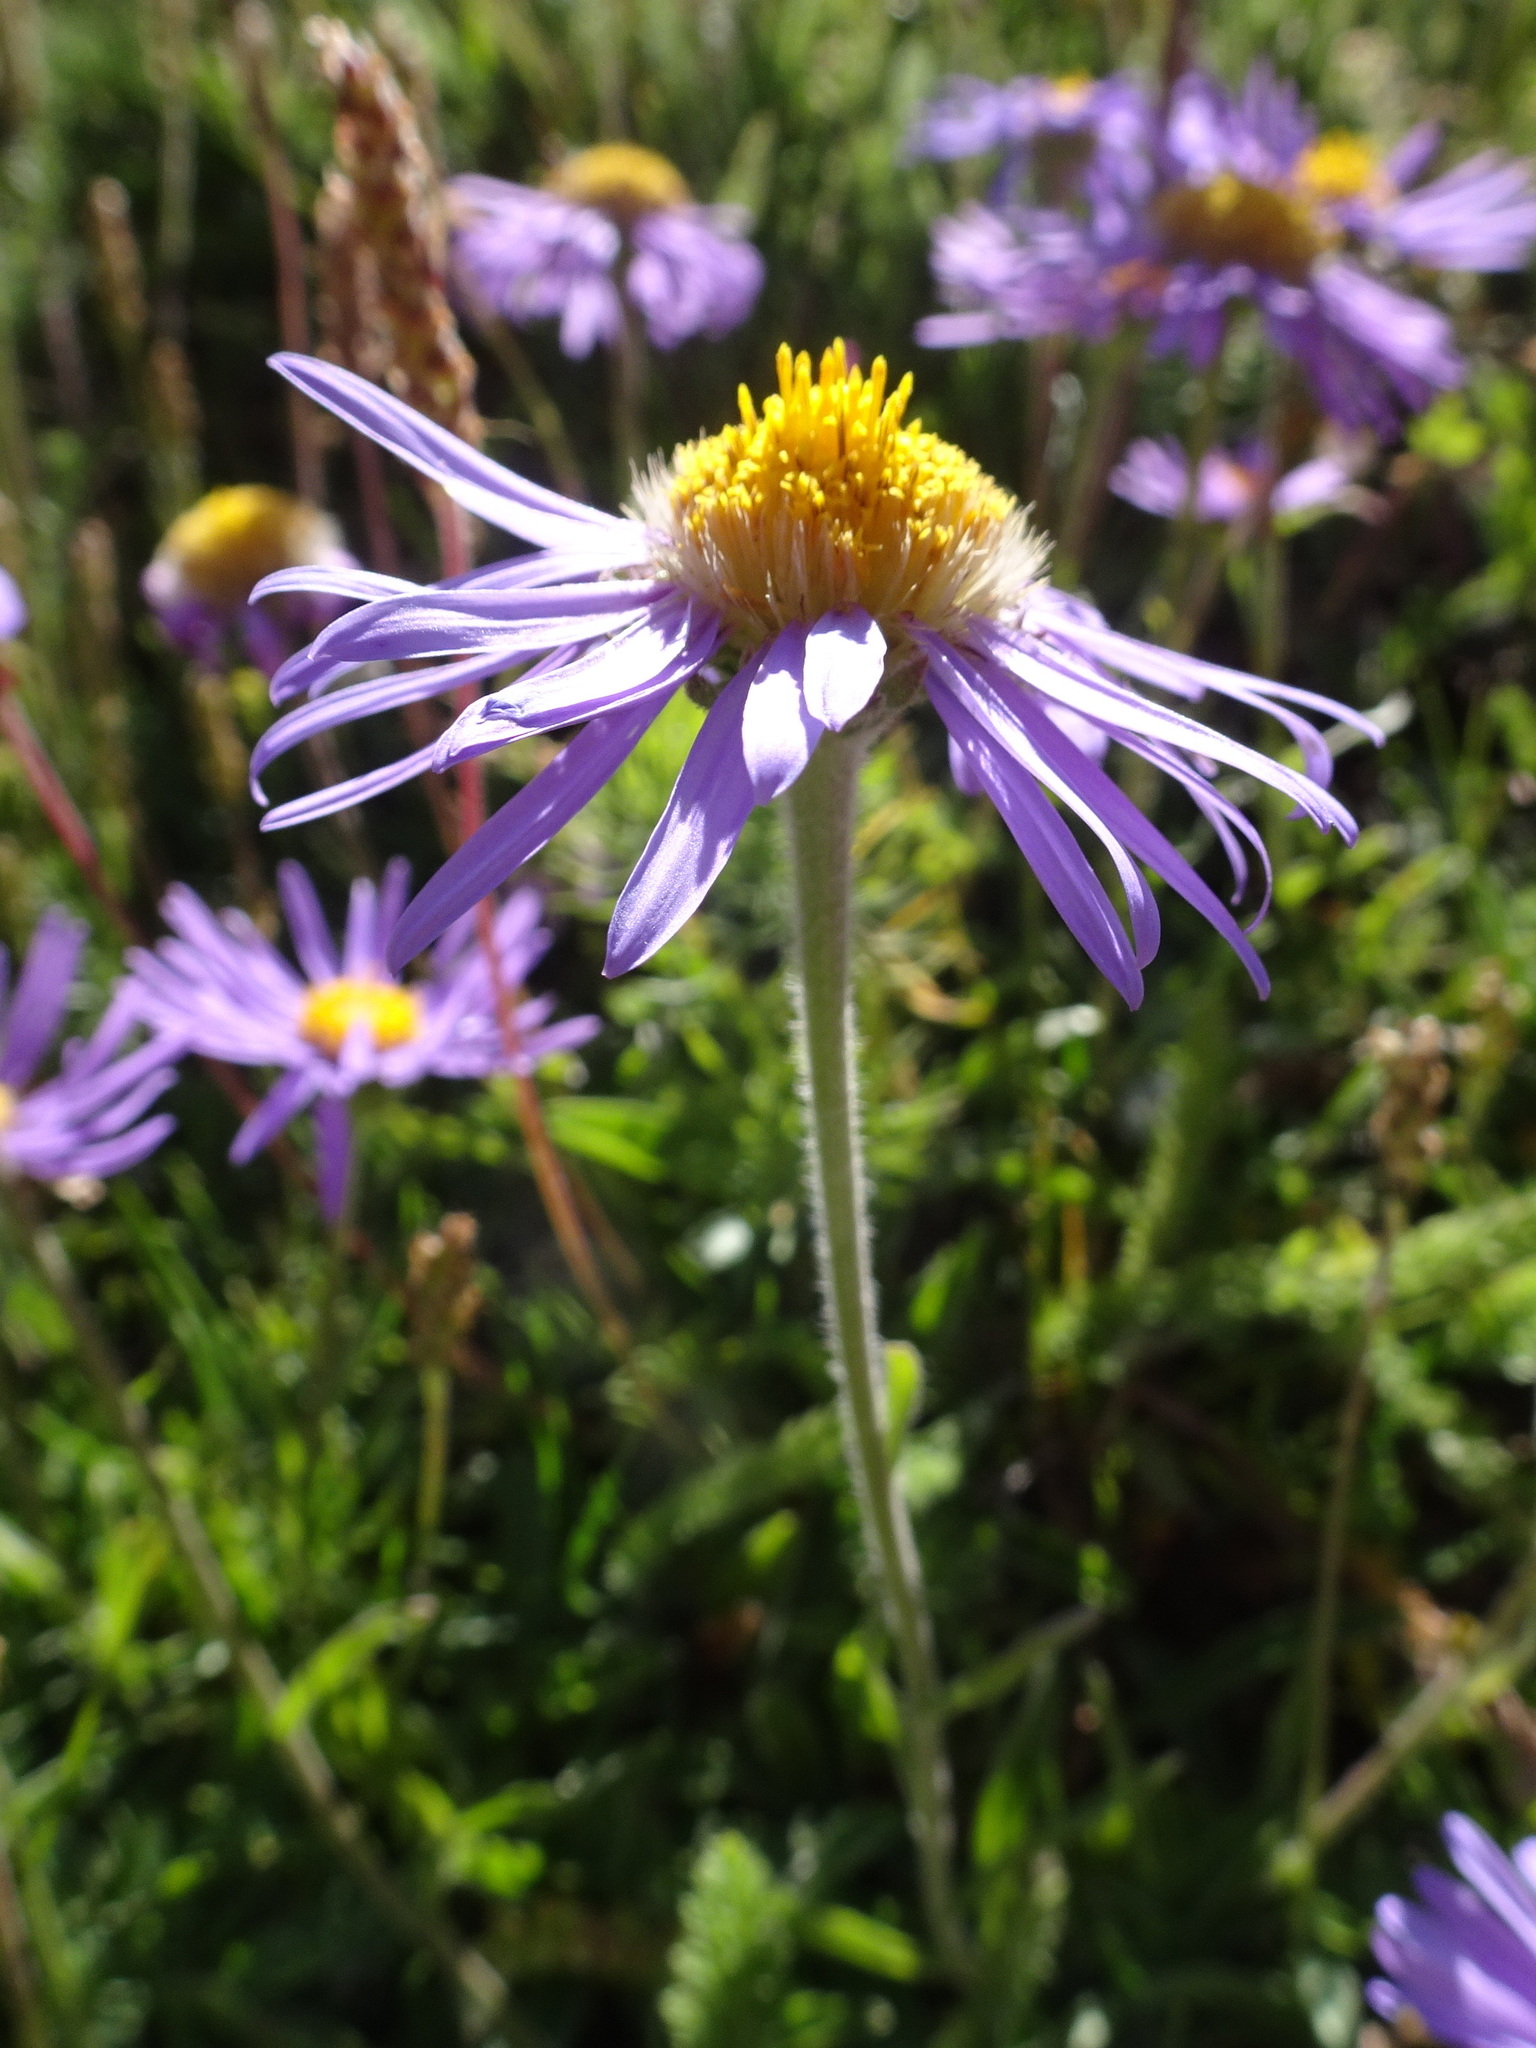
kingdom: Plantae
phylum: Tracheophyta
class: Magnoliopsida
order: Asterales
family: Asteraceae
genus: Aster
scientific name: Aster alpinus
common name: Alpine aster
